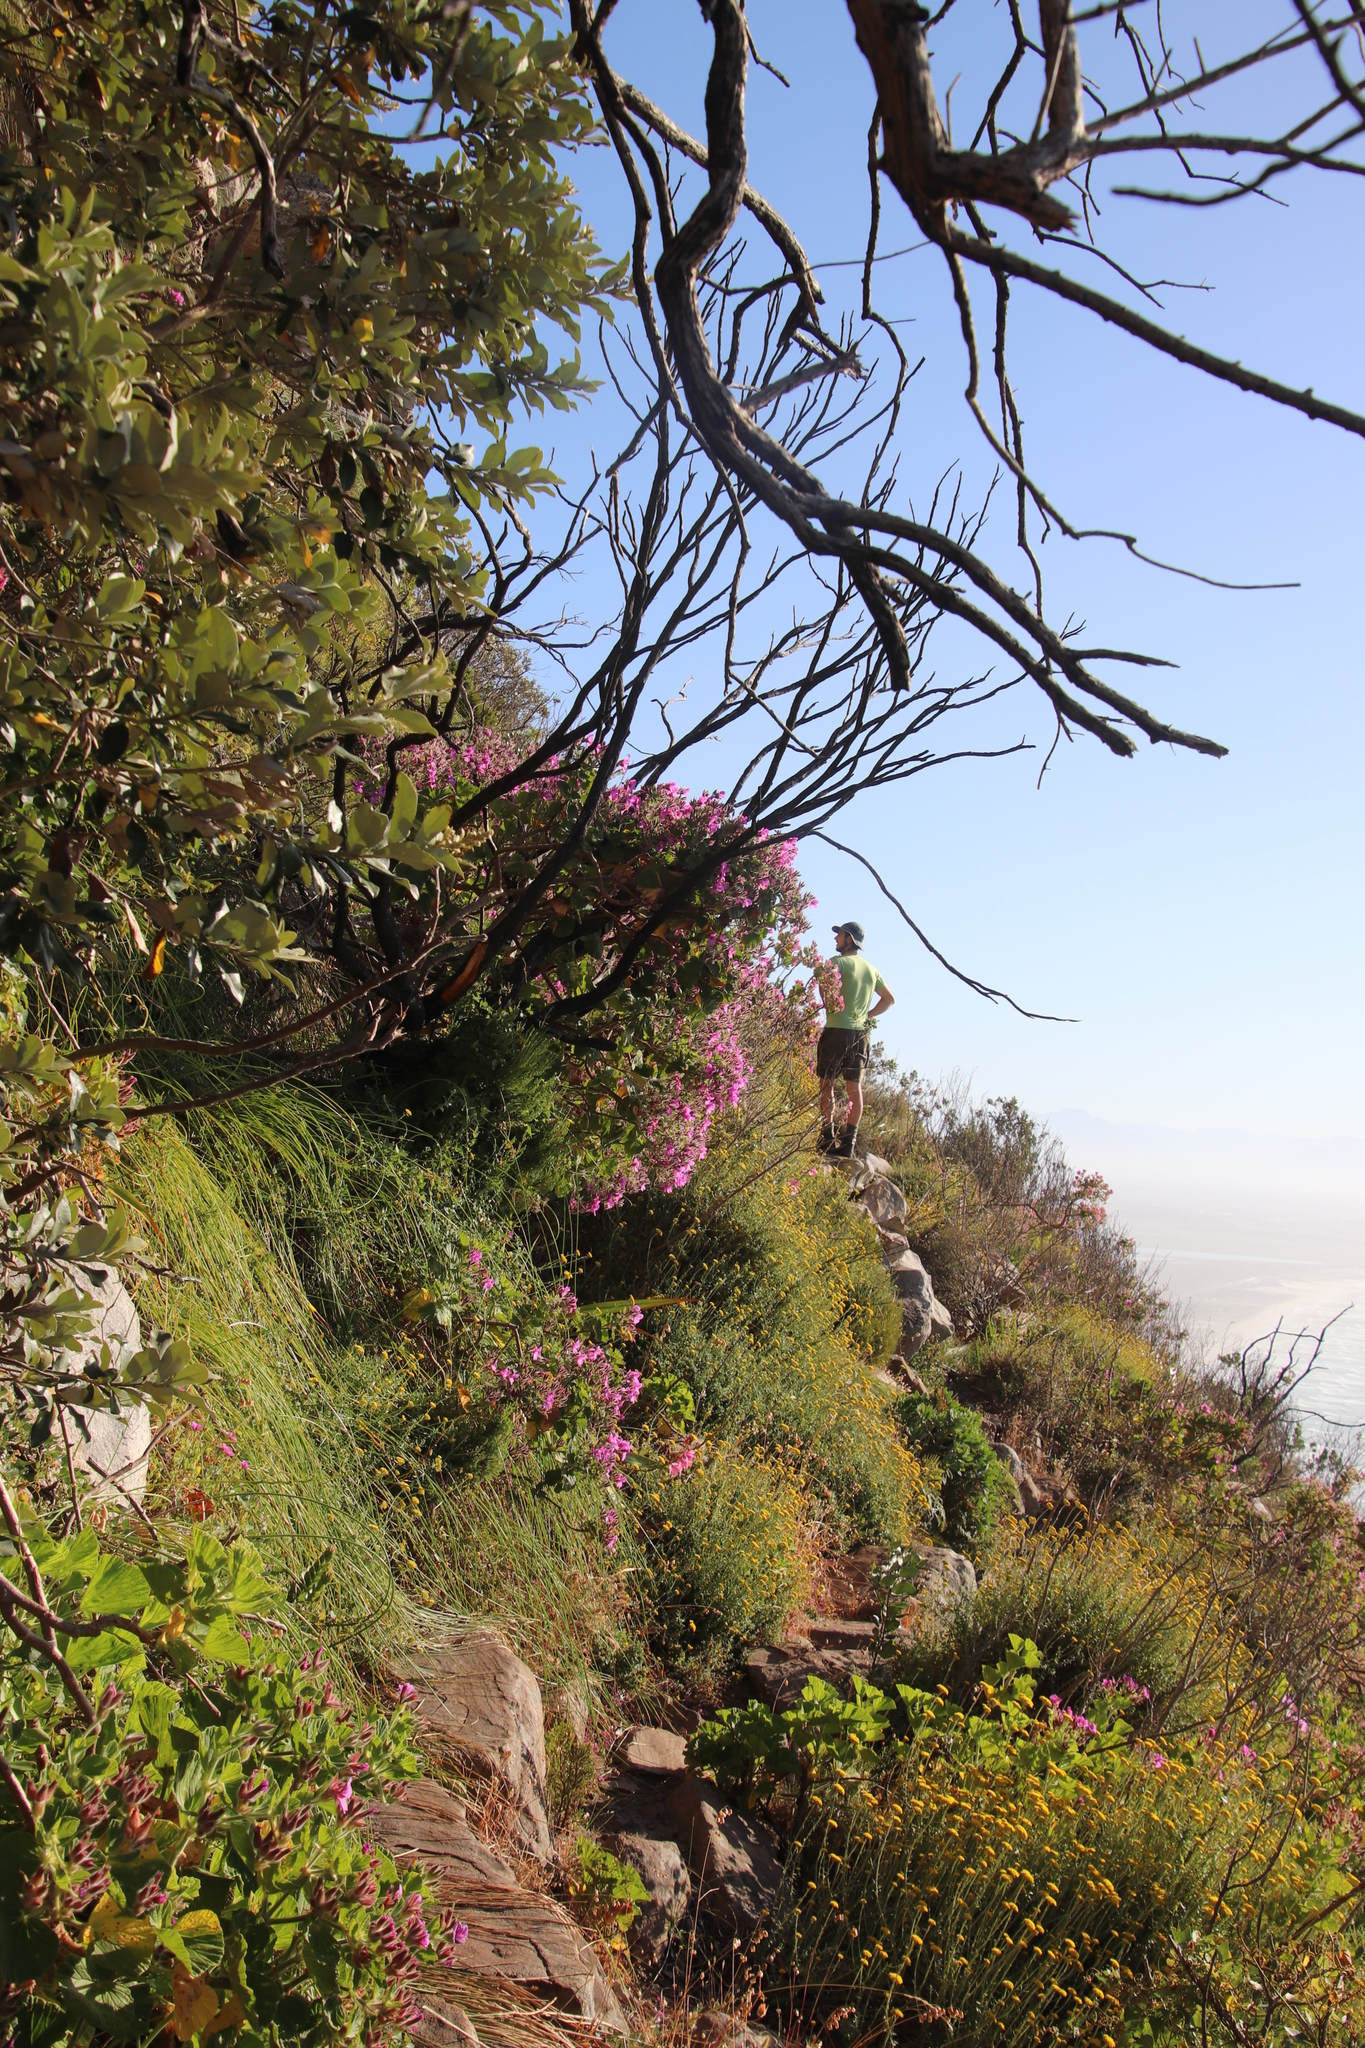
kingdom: Plantae
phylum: Tracheophyta
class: Magnoliopsida
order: Geraniales
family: Geraniaceae
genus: Pelargonium
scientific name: Pelargonium cucullatum
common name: Tree pelargonium
